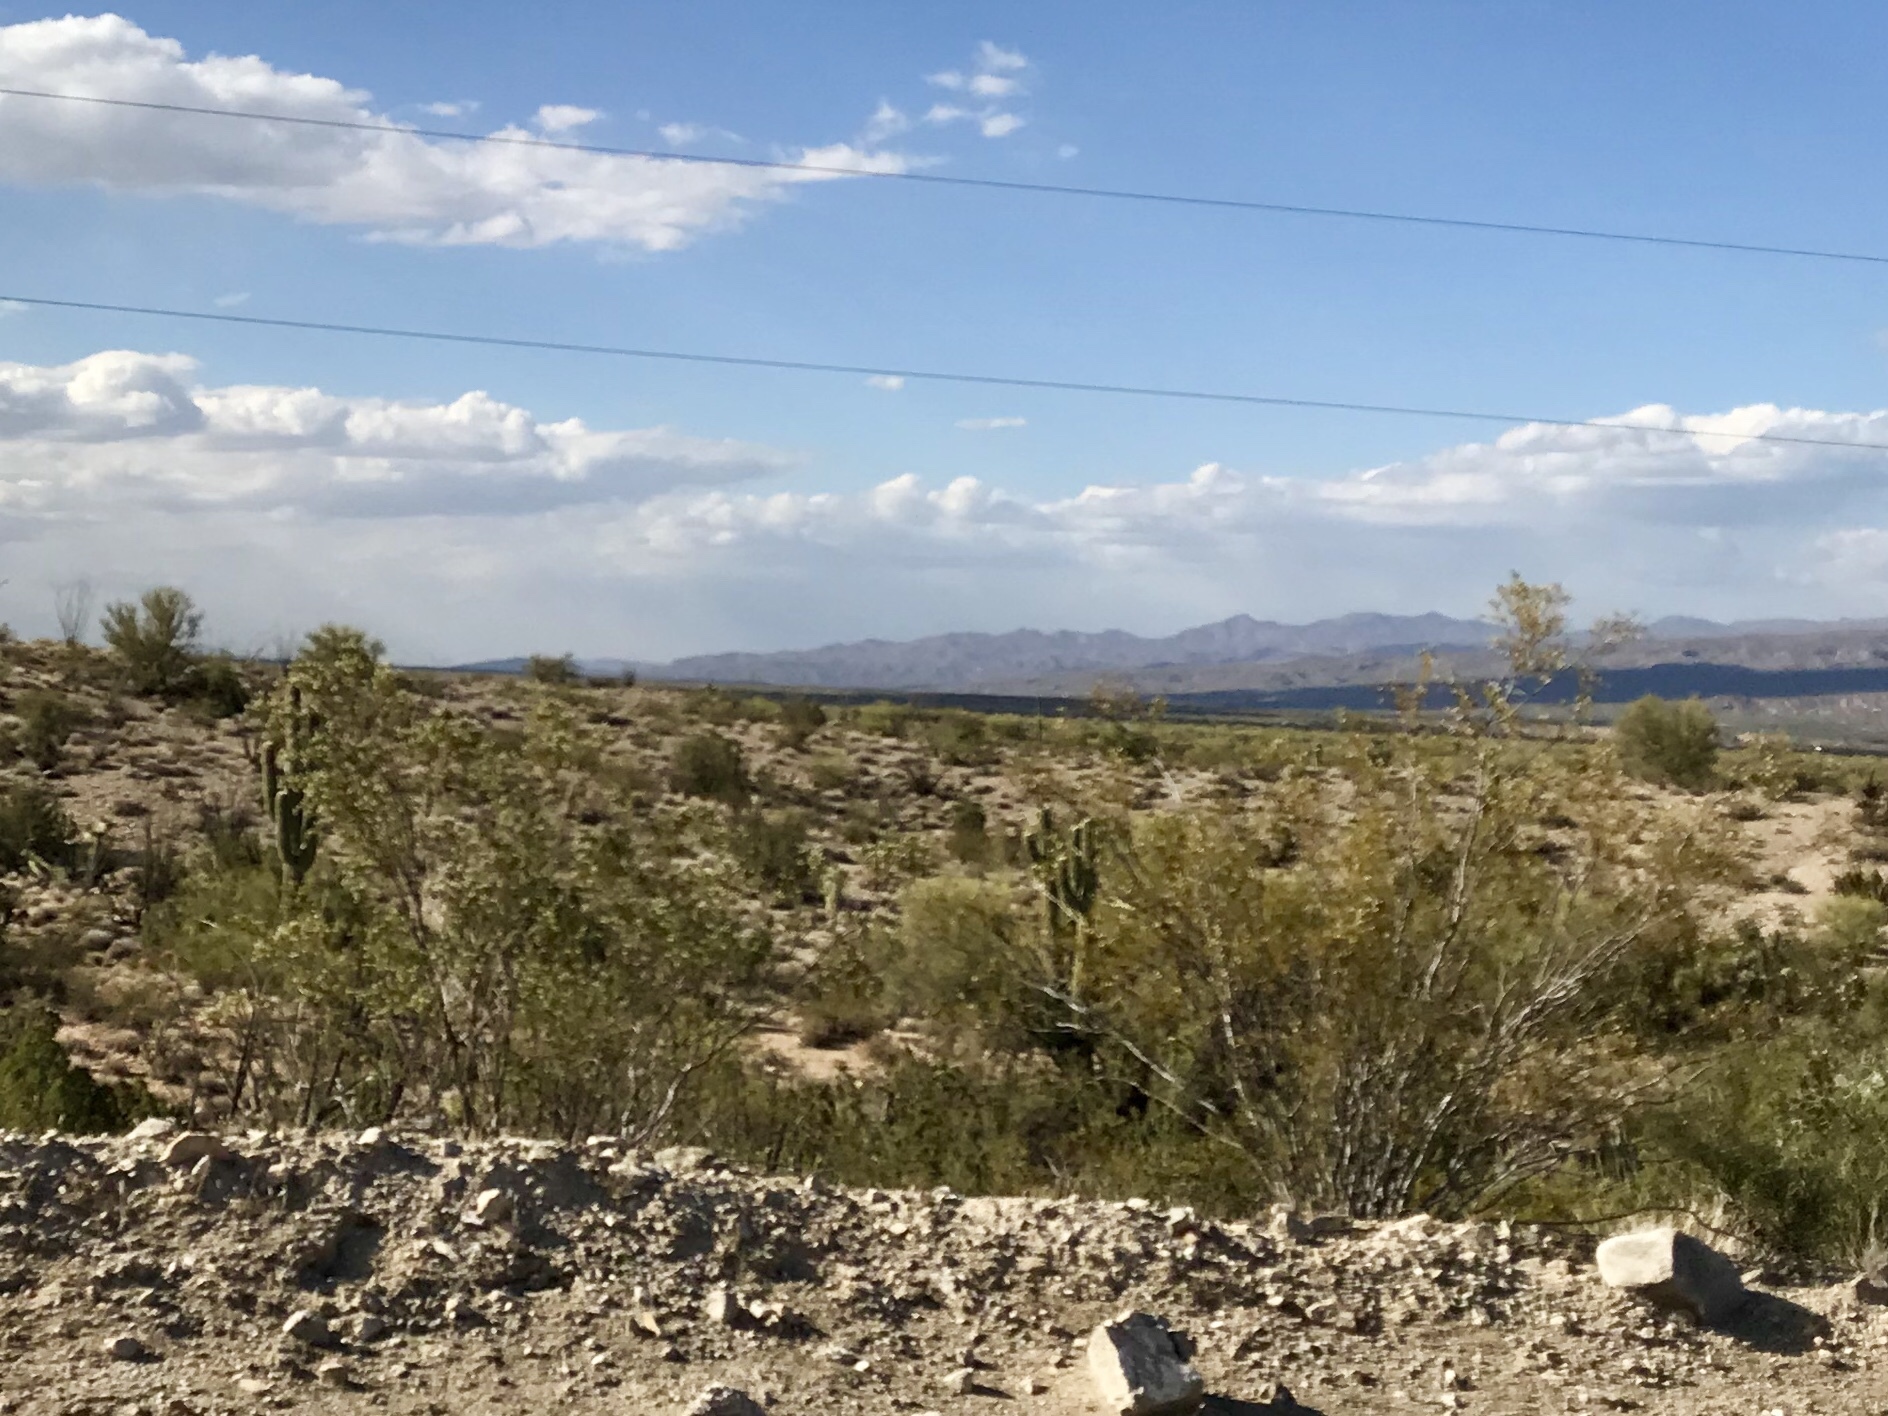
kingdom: Plantae
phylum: Tracheophyta
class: Magnoliopsida
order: Zygophyllales
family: Zygophyllaceae
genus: Larrea
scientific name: Larrea tridentata
